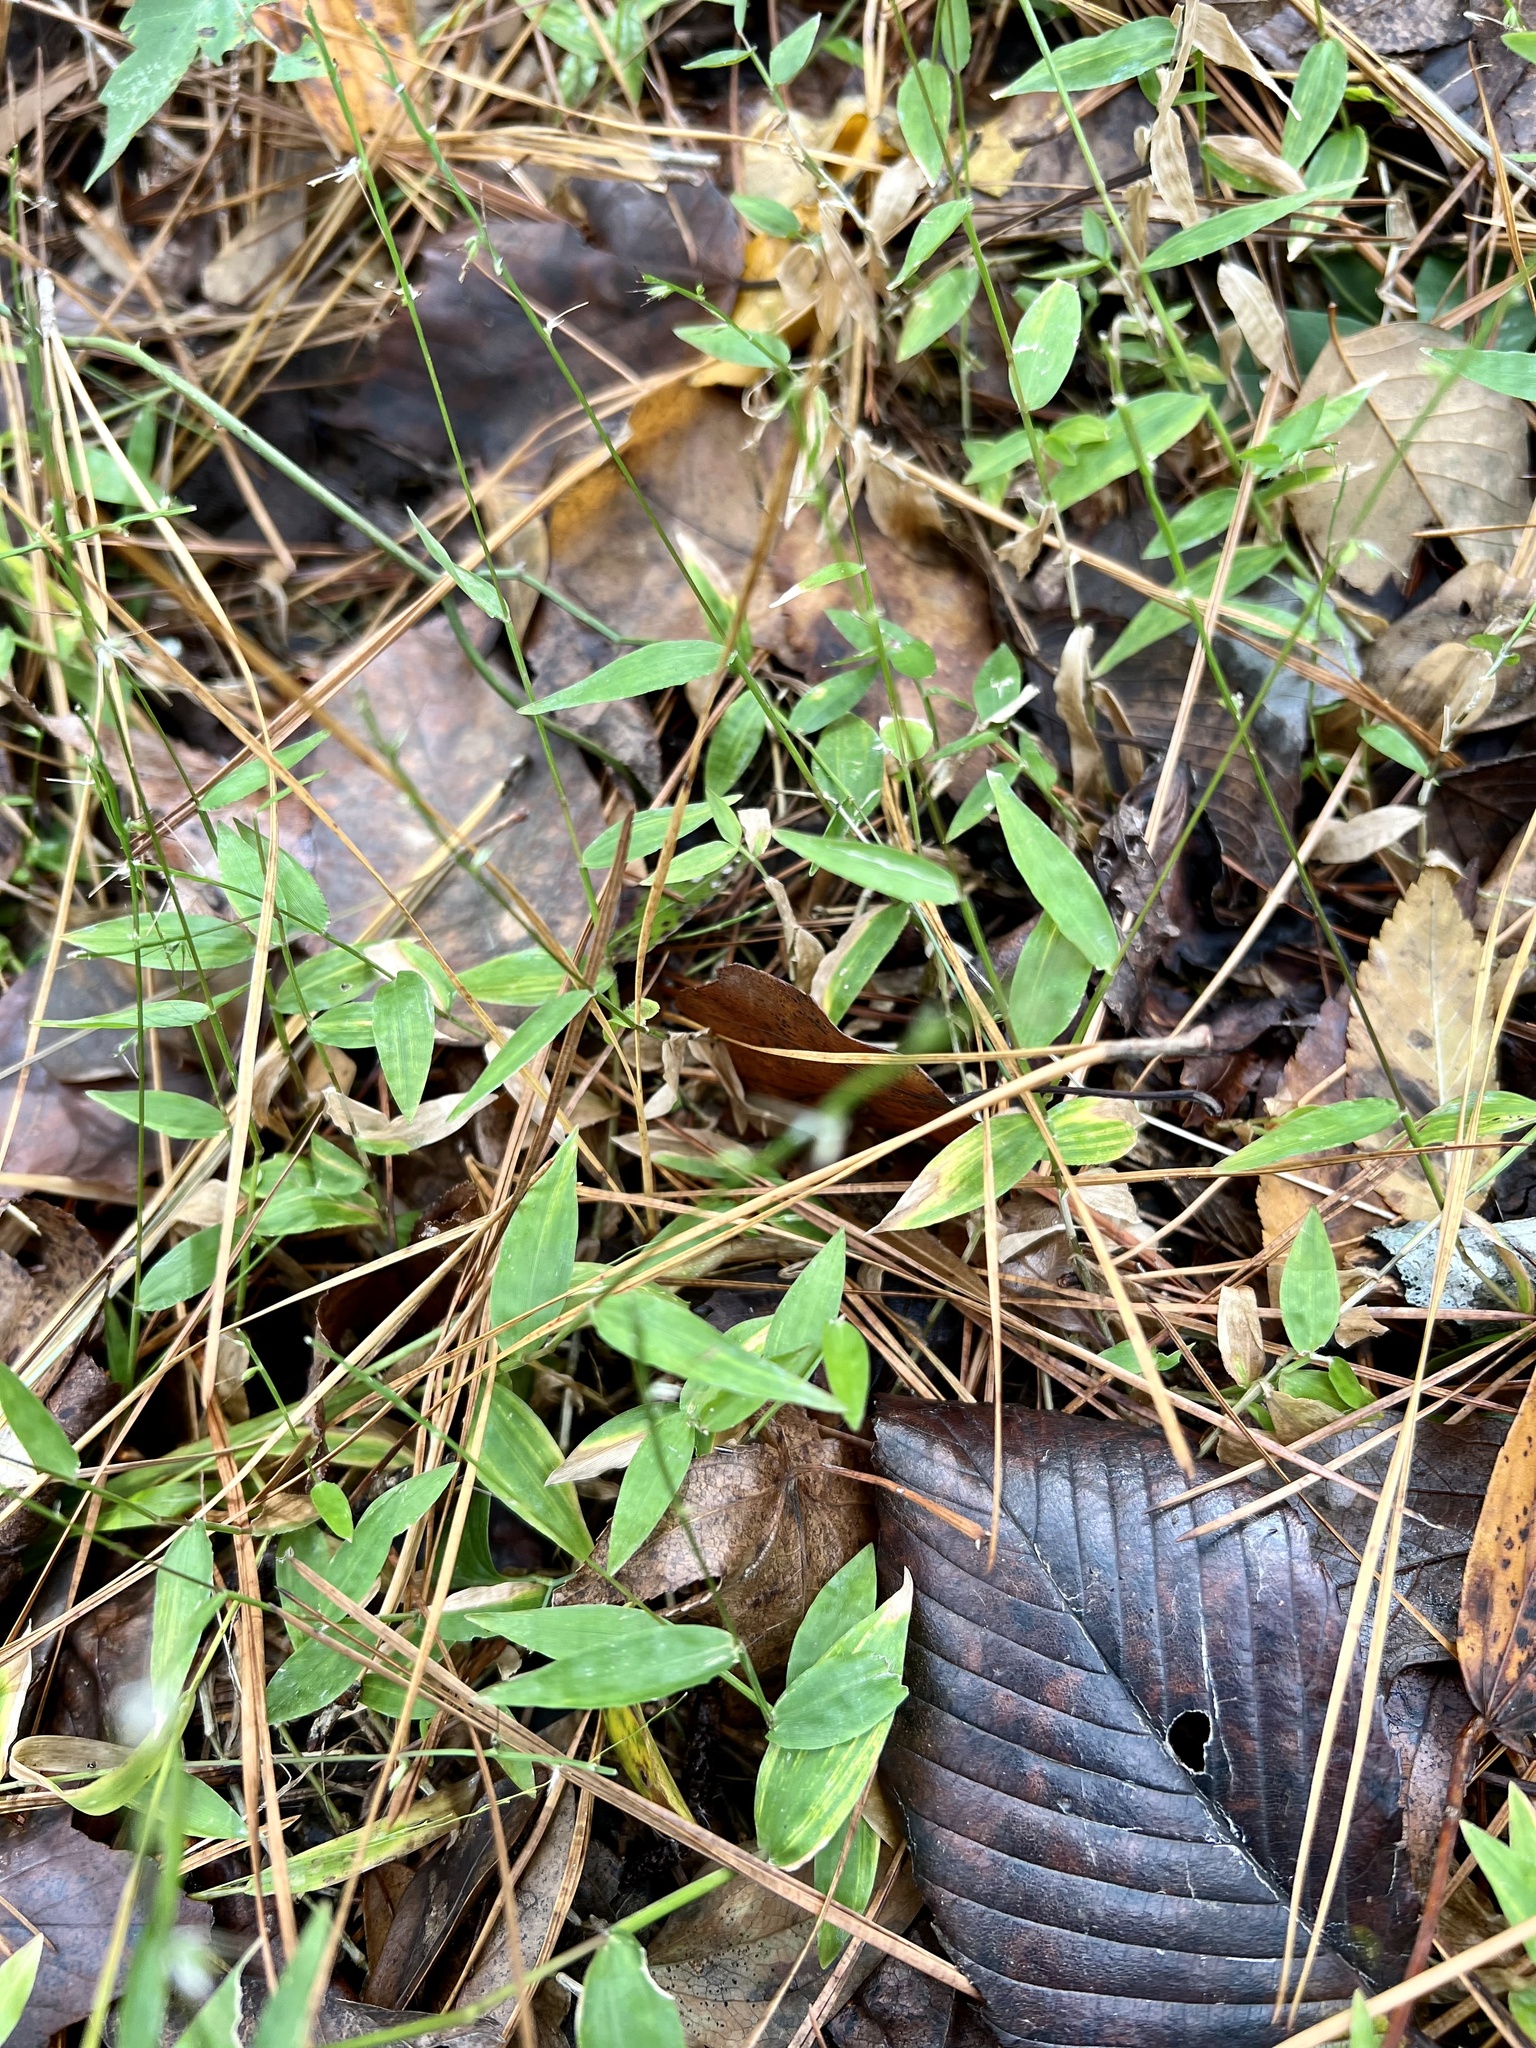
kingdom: Plantae
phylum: Tracheophyta
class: Liliopsida
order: Poales
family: Poaceae
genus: Oplismenus
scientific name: Oplismenus hirtellus
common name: Basketgrass
